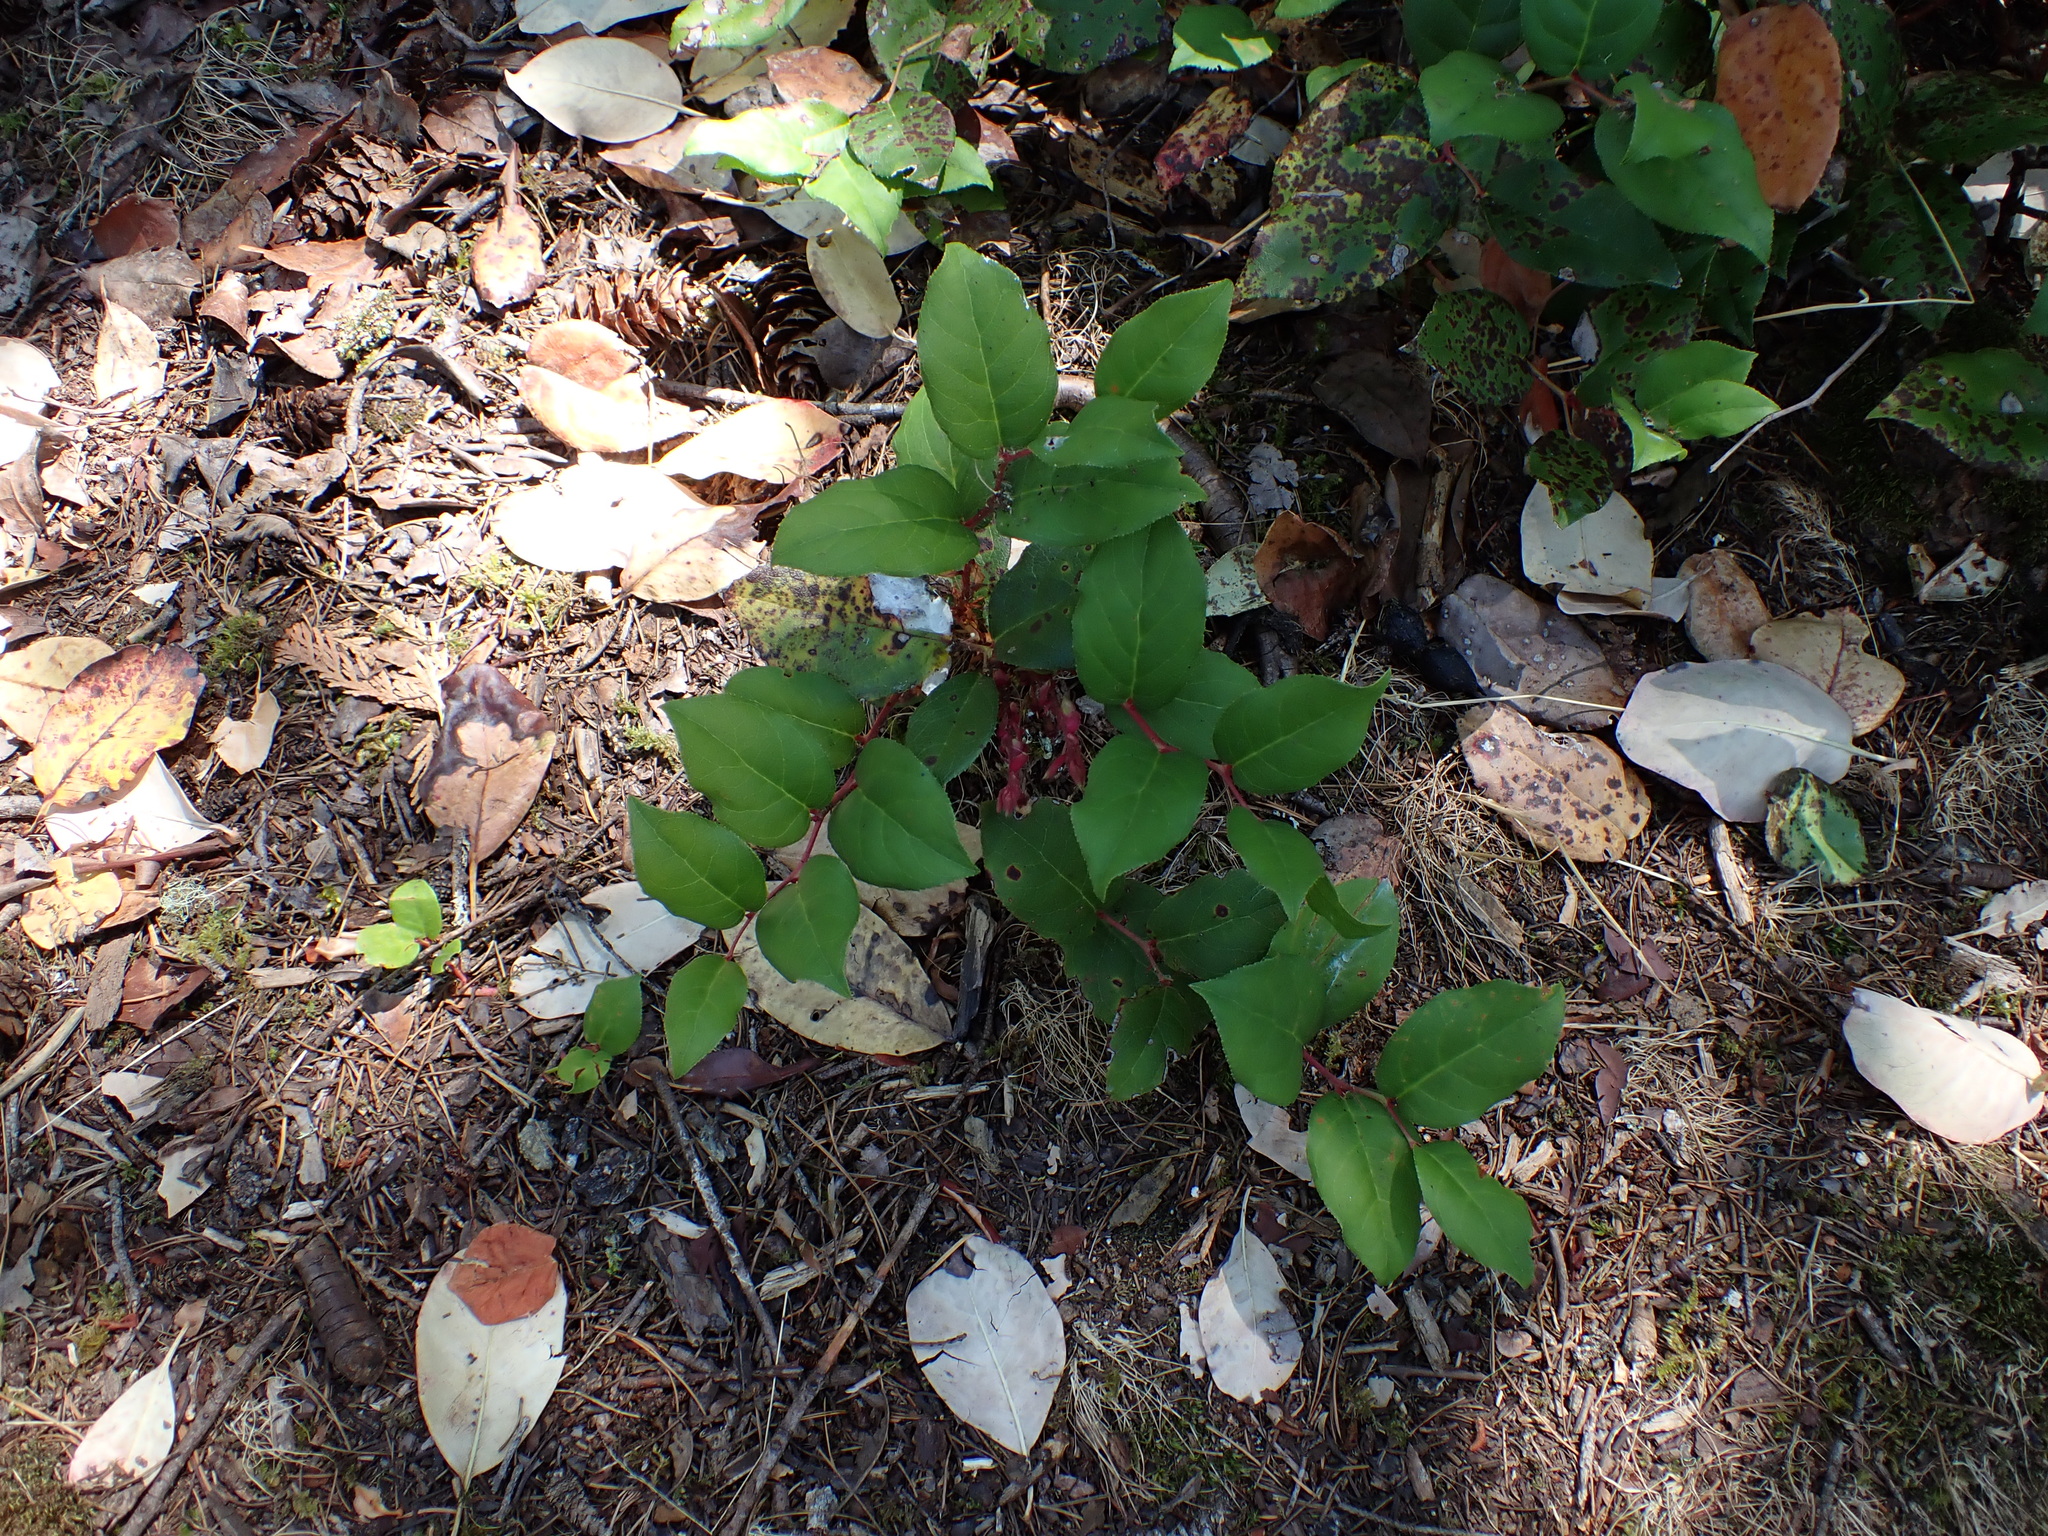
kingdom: Plantae
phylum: Tracheophyta
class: Magnoliopsida
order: Ericales
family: Ericaceae
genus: Gaultheria
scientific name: Gaultheria shallon
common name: Shallon
